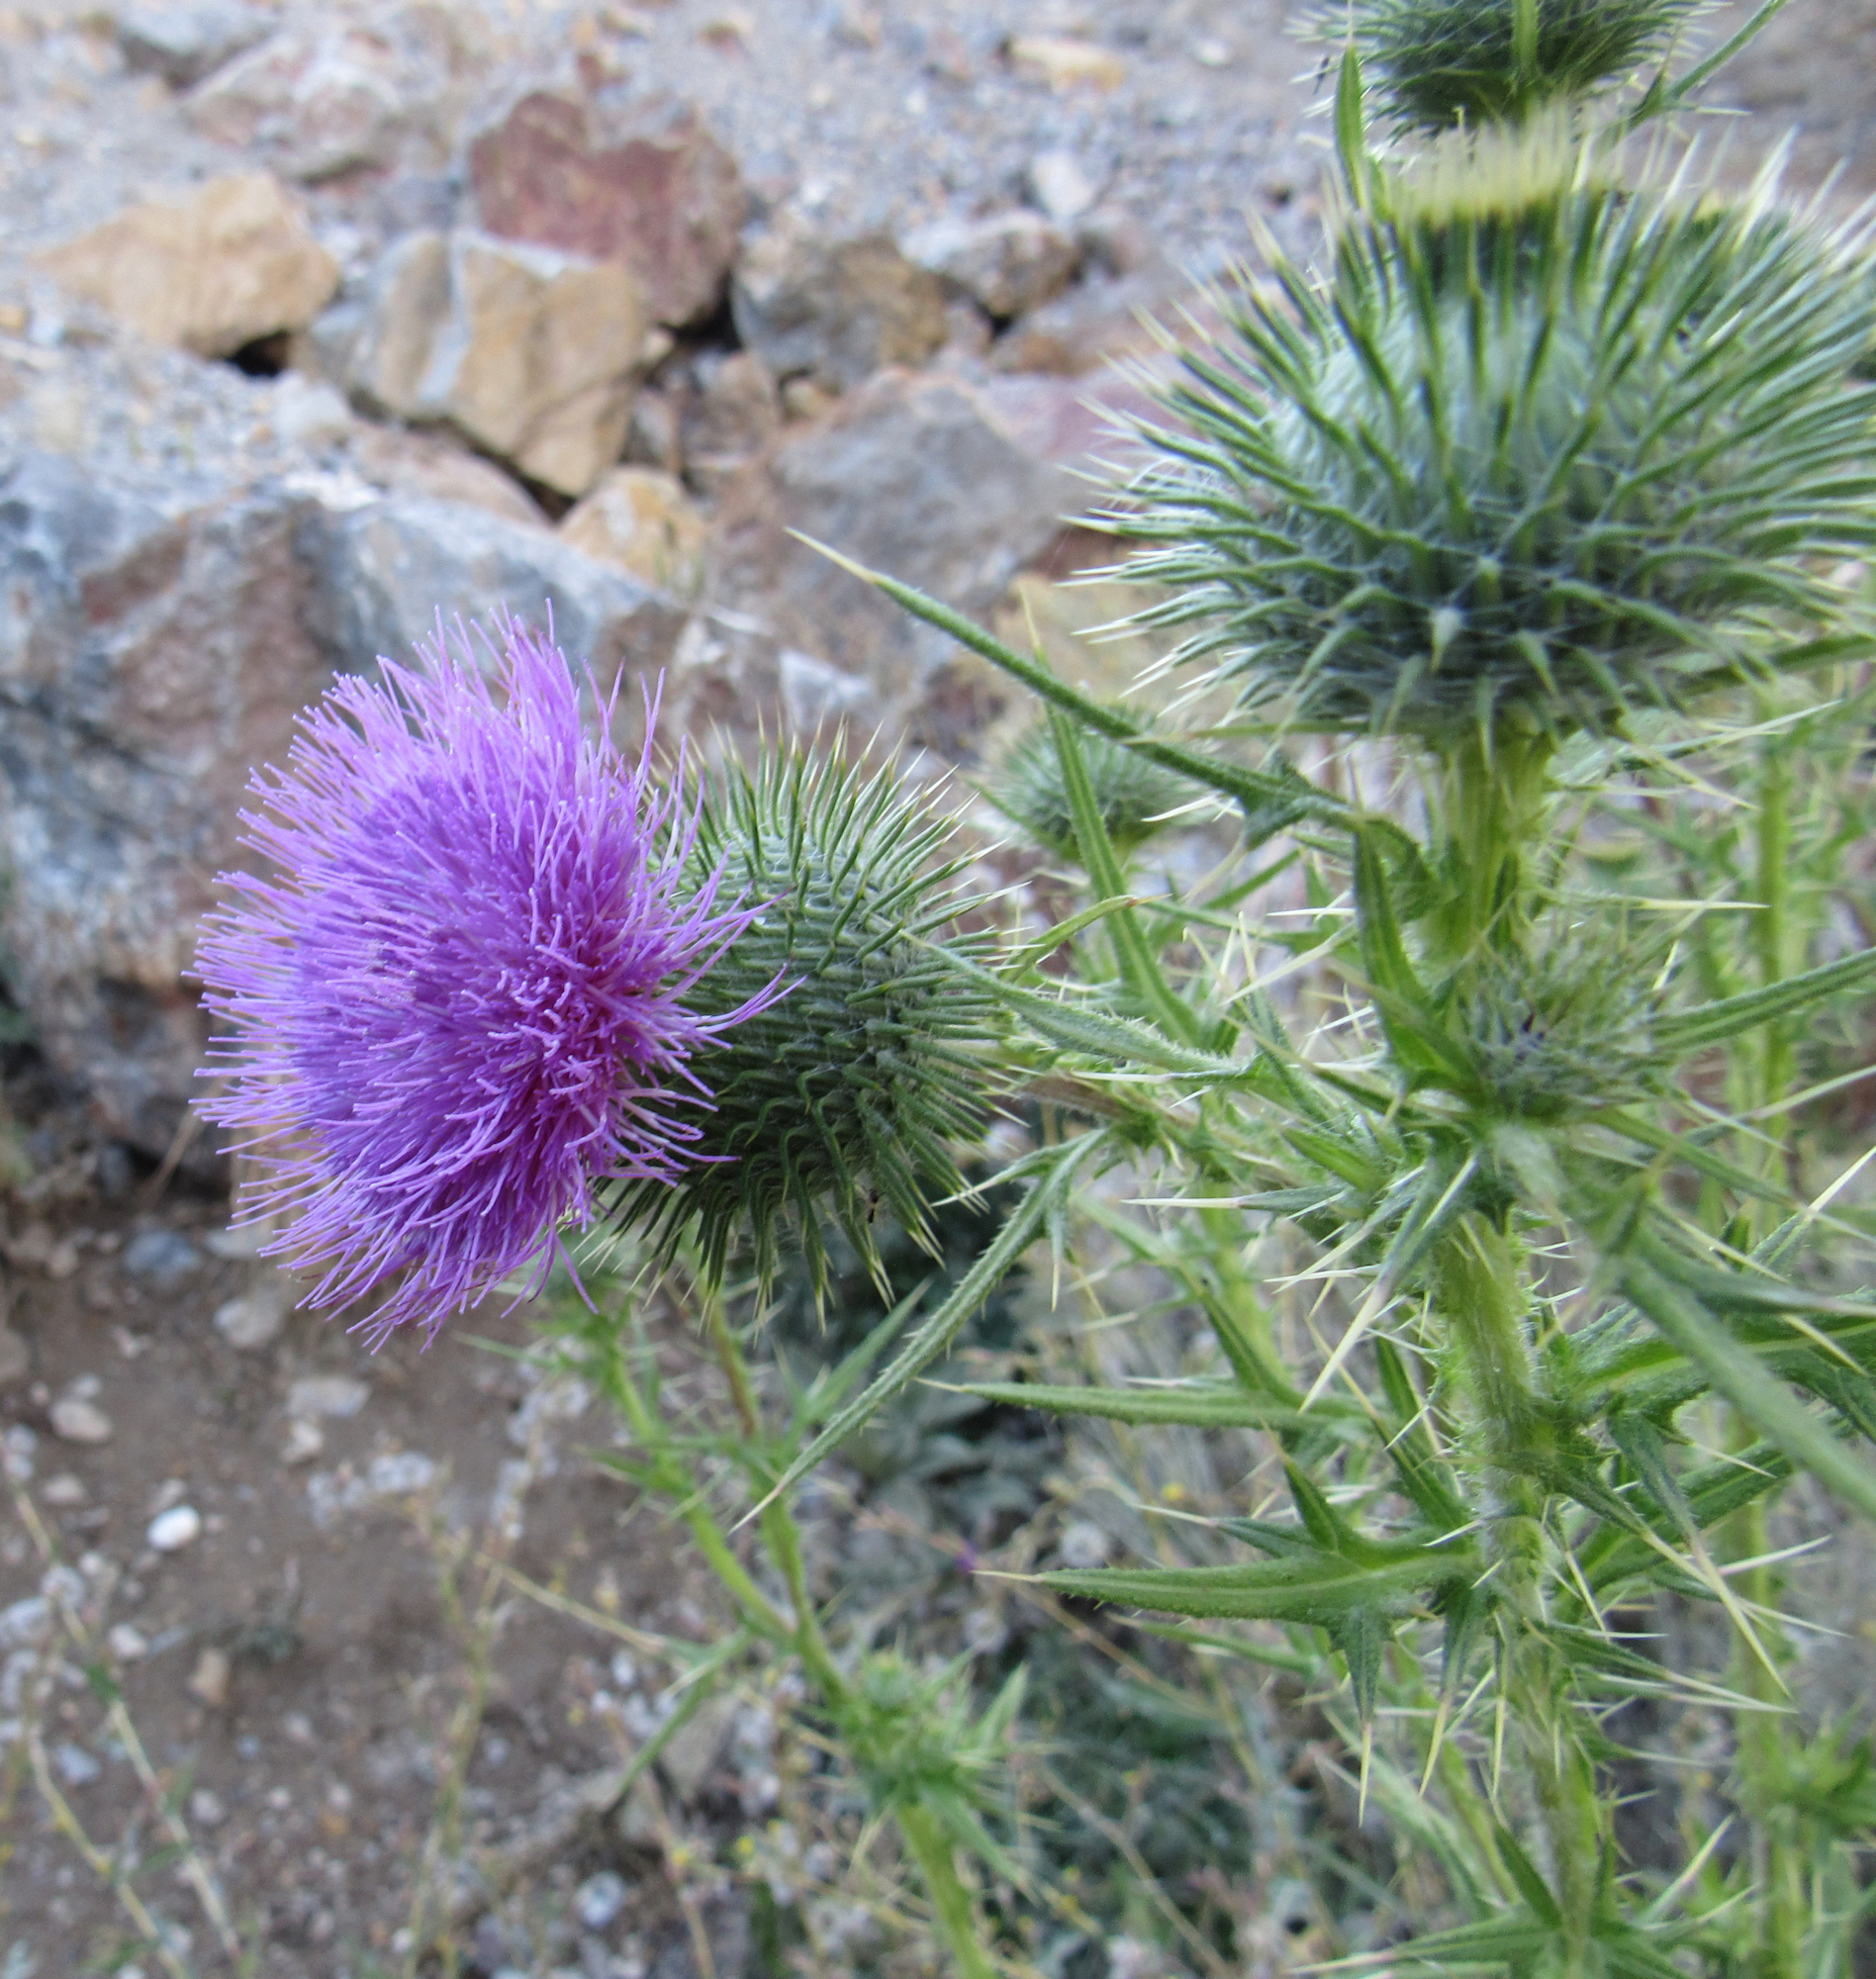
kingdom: Plantae
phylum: Tracheophyta
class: Magnoliopsida
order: Asterales
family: Asteraceae
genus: Cirsium
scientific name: Cirsium vulgare
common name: Bull thistle
